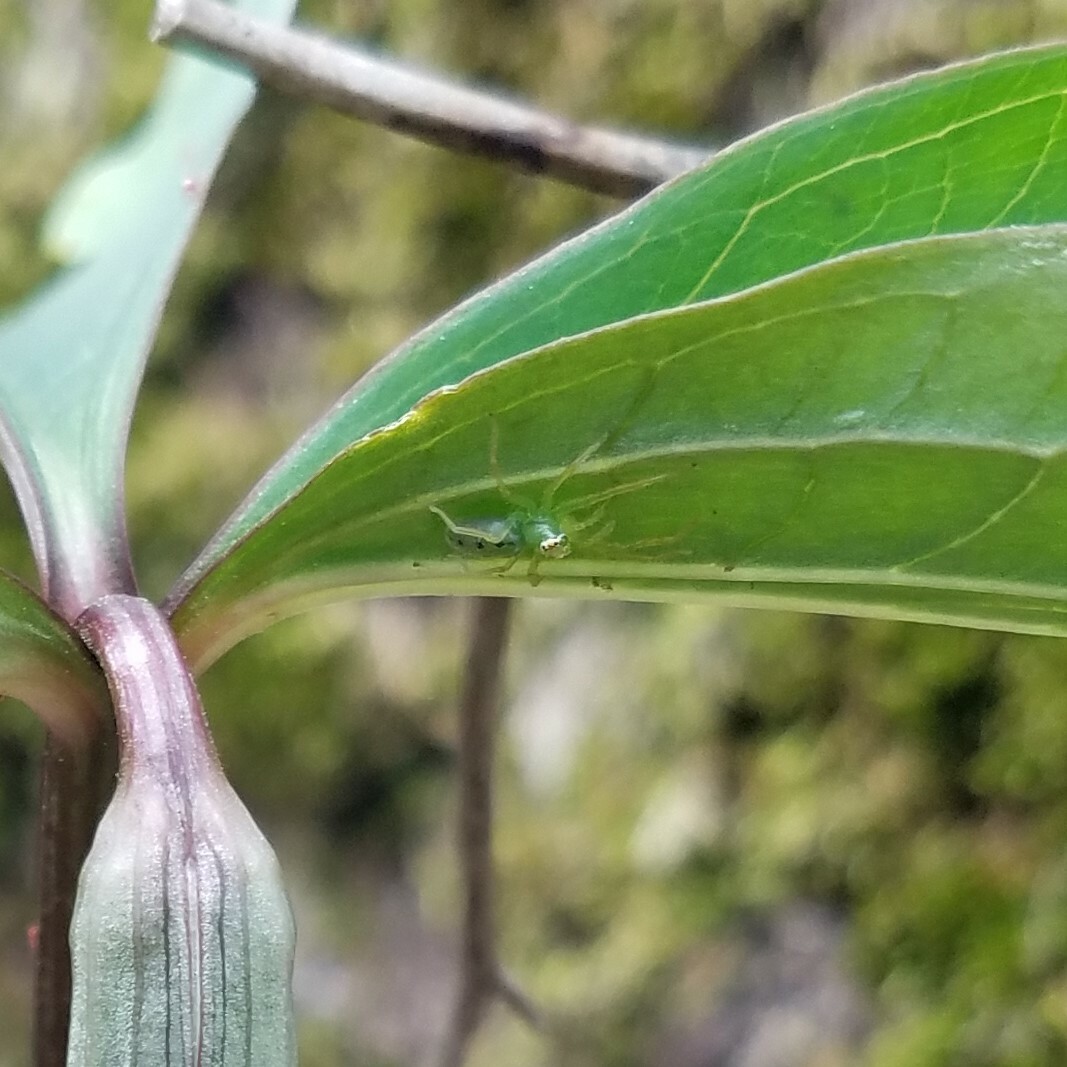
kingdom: Animalia
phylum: Arthropoda
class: Arachnida
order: Araneae
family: Salticidae
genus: Lyssomanes
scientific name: Lyssomanes viridis
